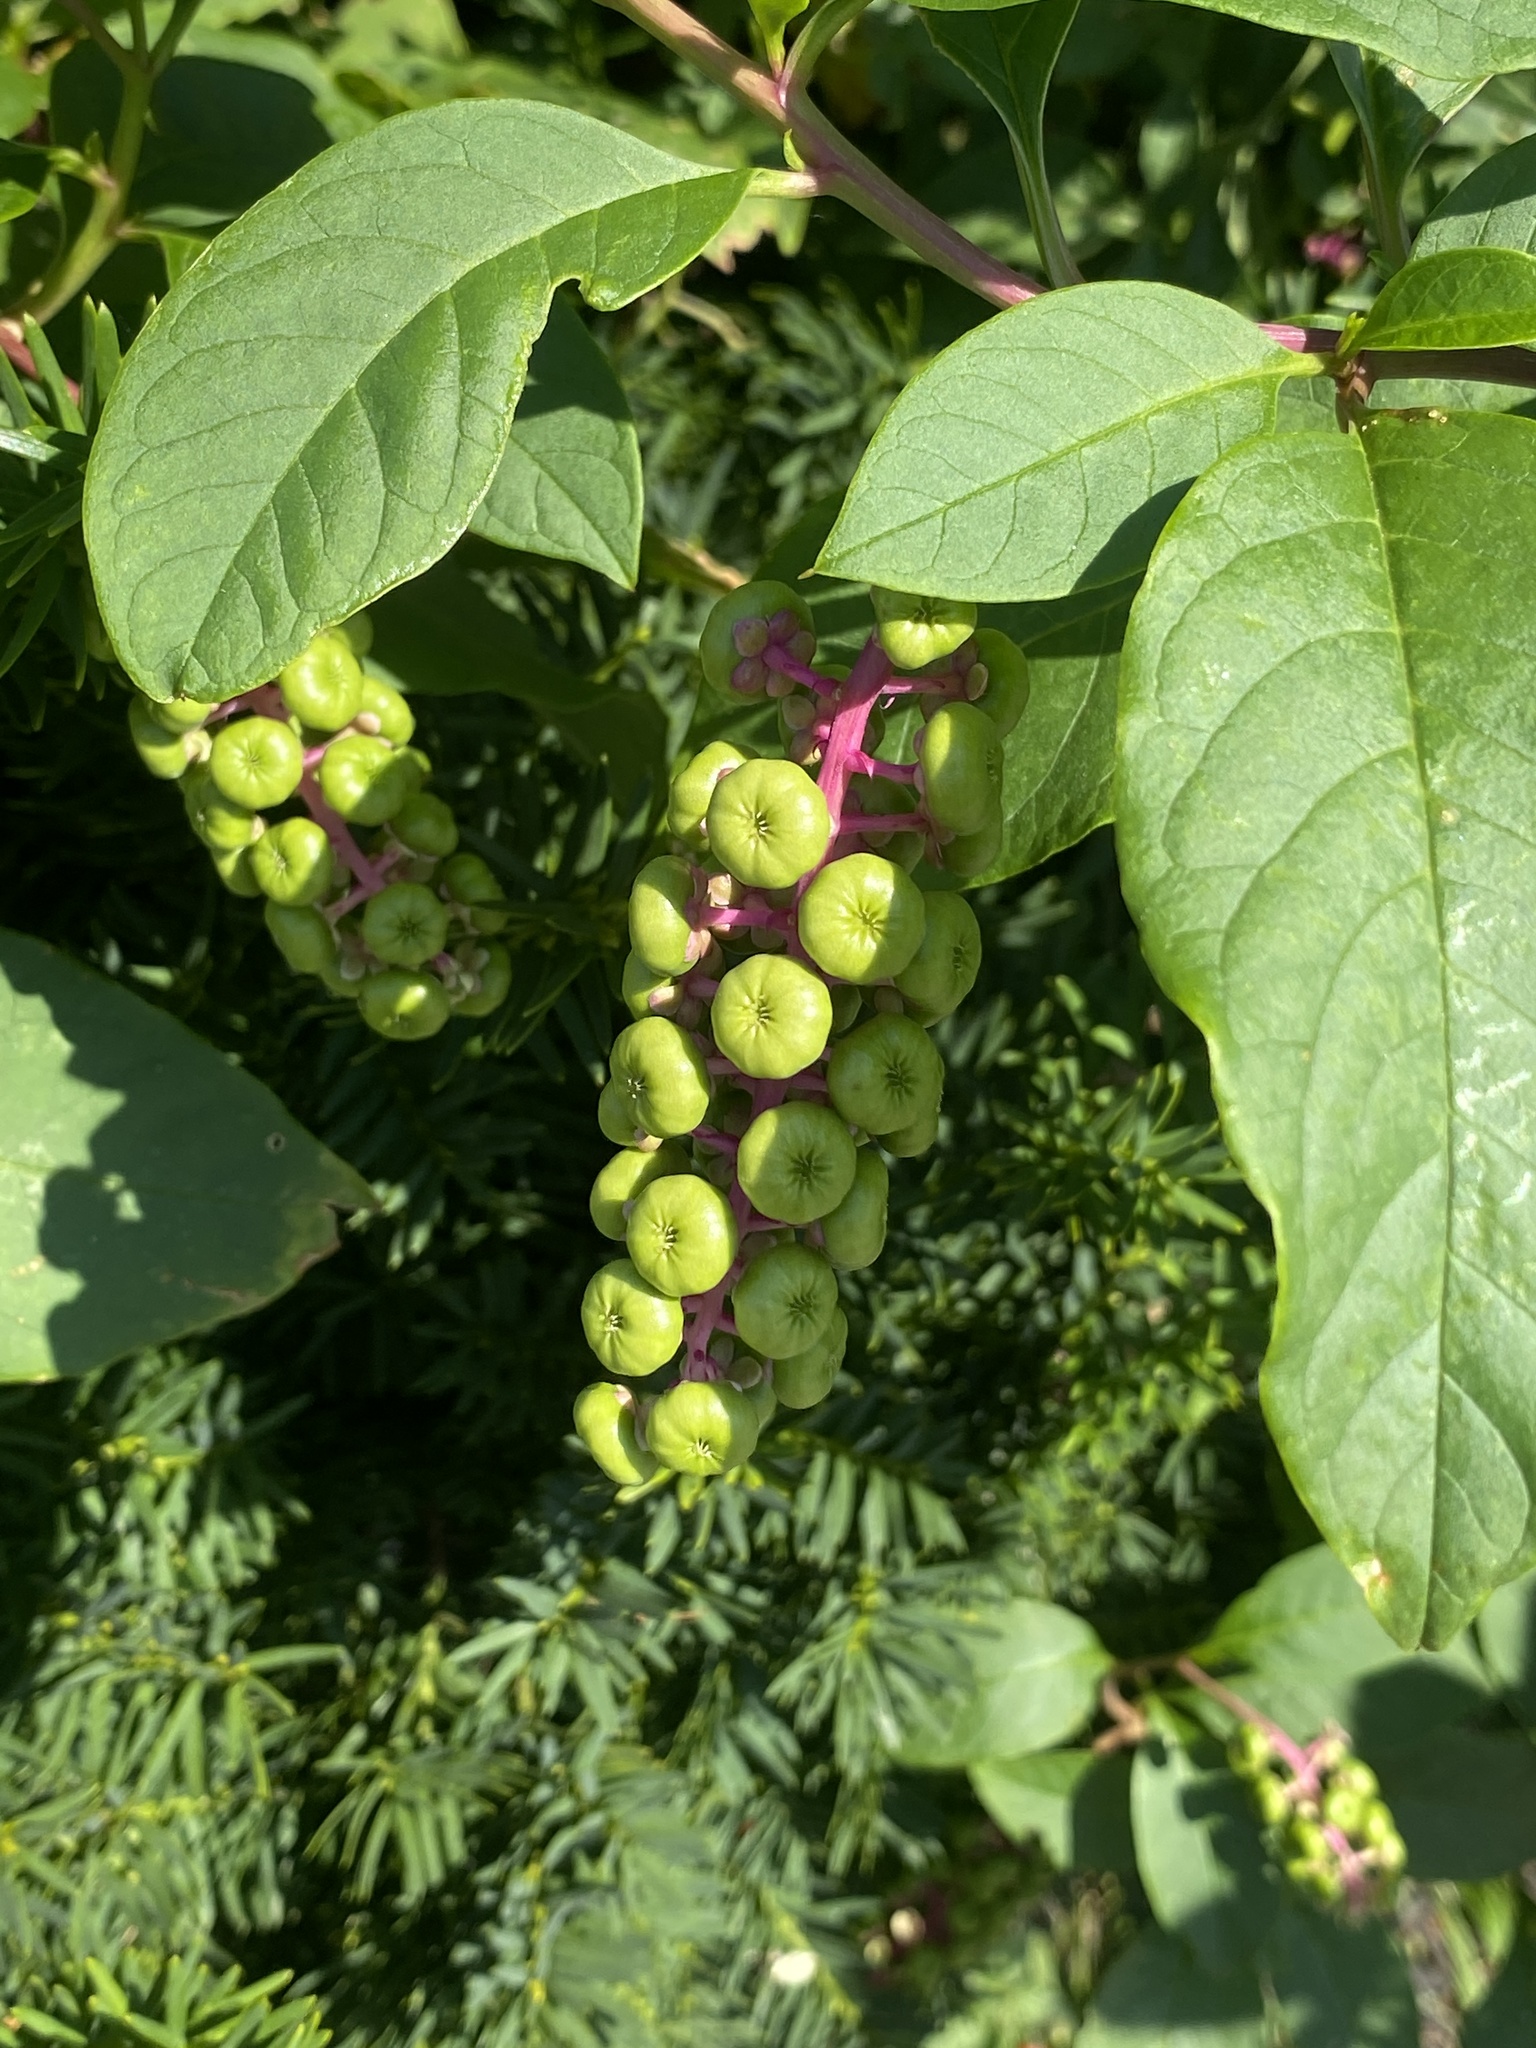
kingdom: Plantae
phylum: Tracheophyta
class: Magnoliopsida
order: Caryophyllales
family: Phytolaccaceae
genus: Phytolacca
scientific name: Phytolacca americana
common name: American pokeweed
